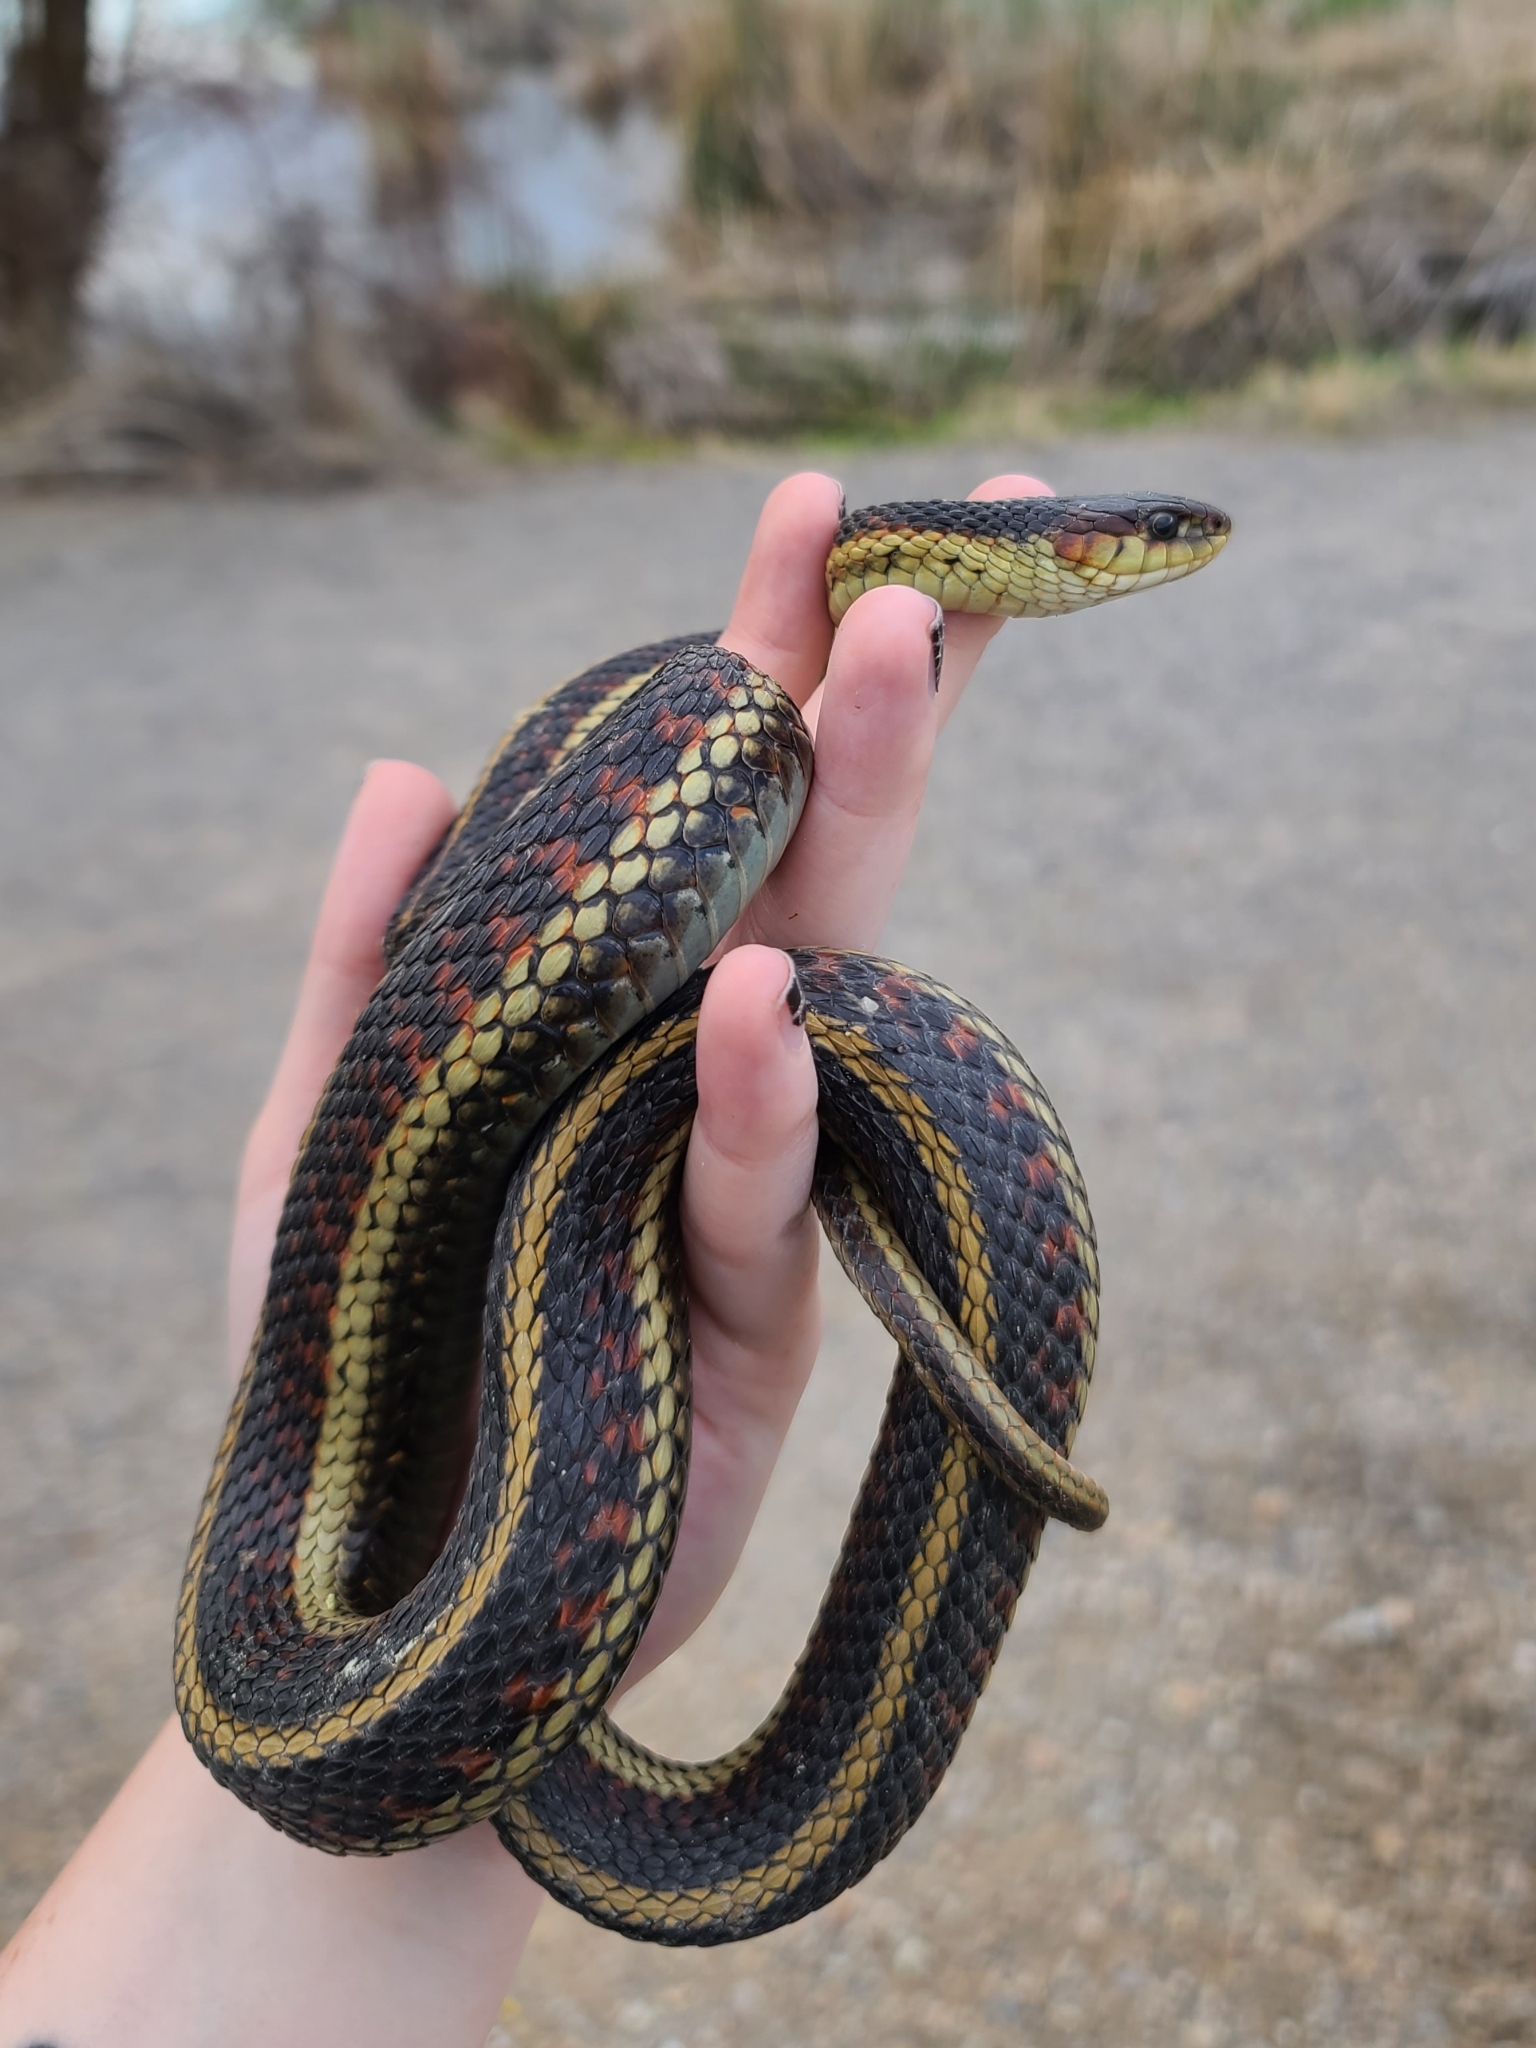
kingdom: Animalia
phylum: Chordata
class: Squamata
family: Colubridae
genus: Thamnophis
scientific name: Thamnophis sirtalis
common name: Common garter snake
